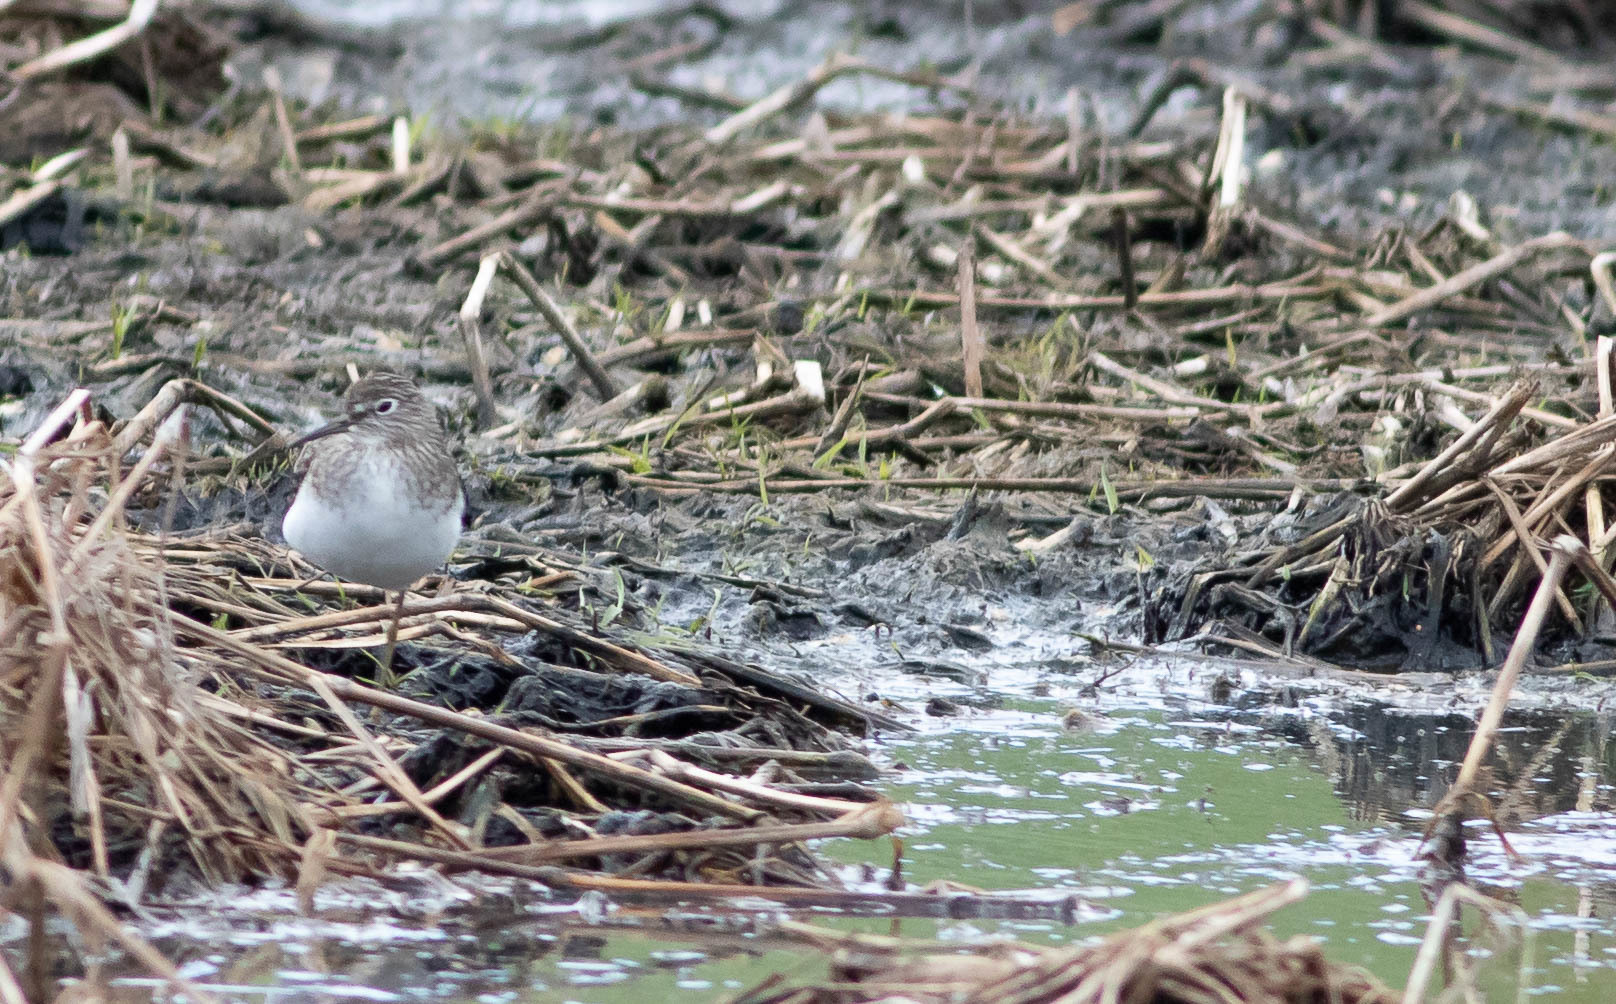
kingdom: Animalia
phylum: Chordata
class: Aves
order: Charadriiformes
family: Scolopacidae
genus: Tringa
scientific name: Tringa solitaria
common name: Solitary sandpiper
